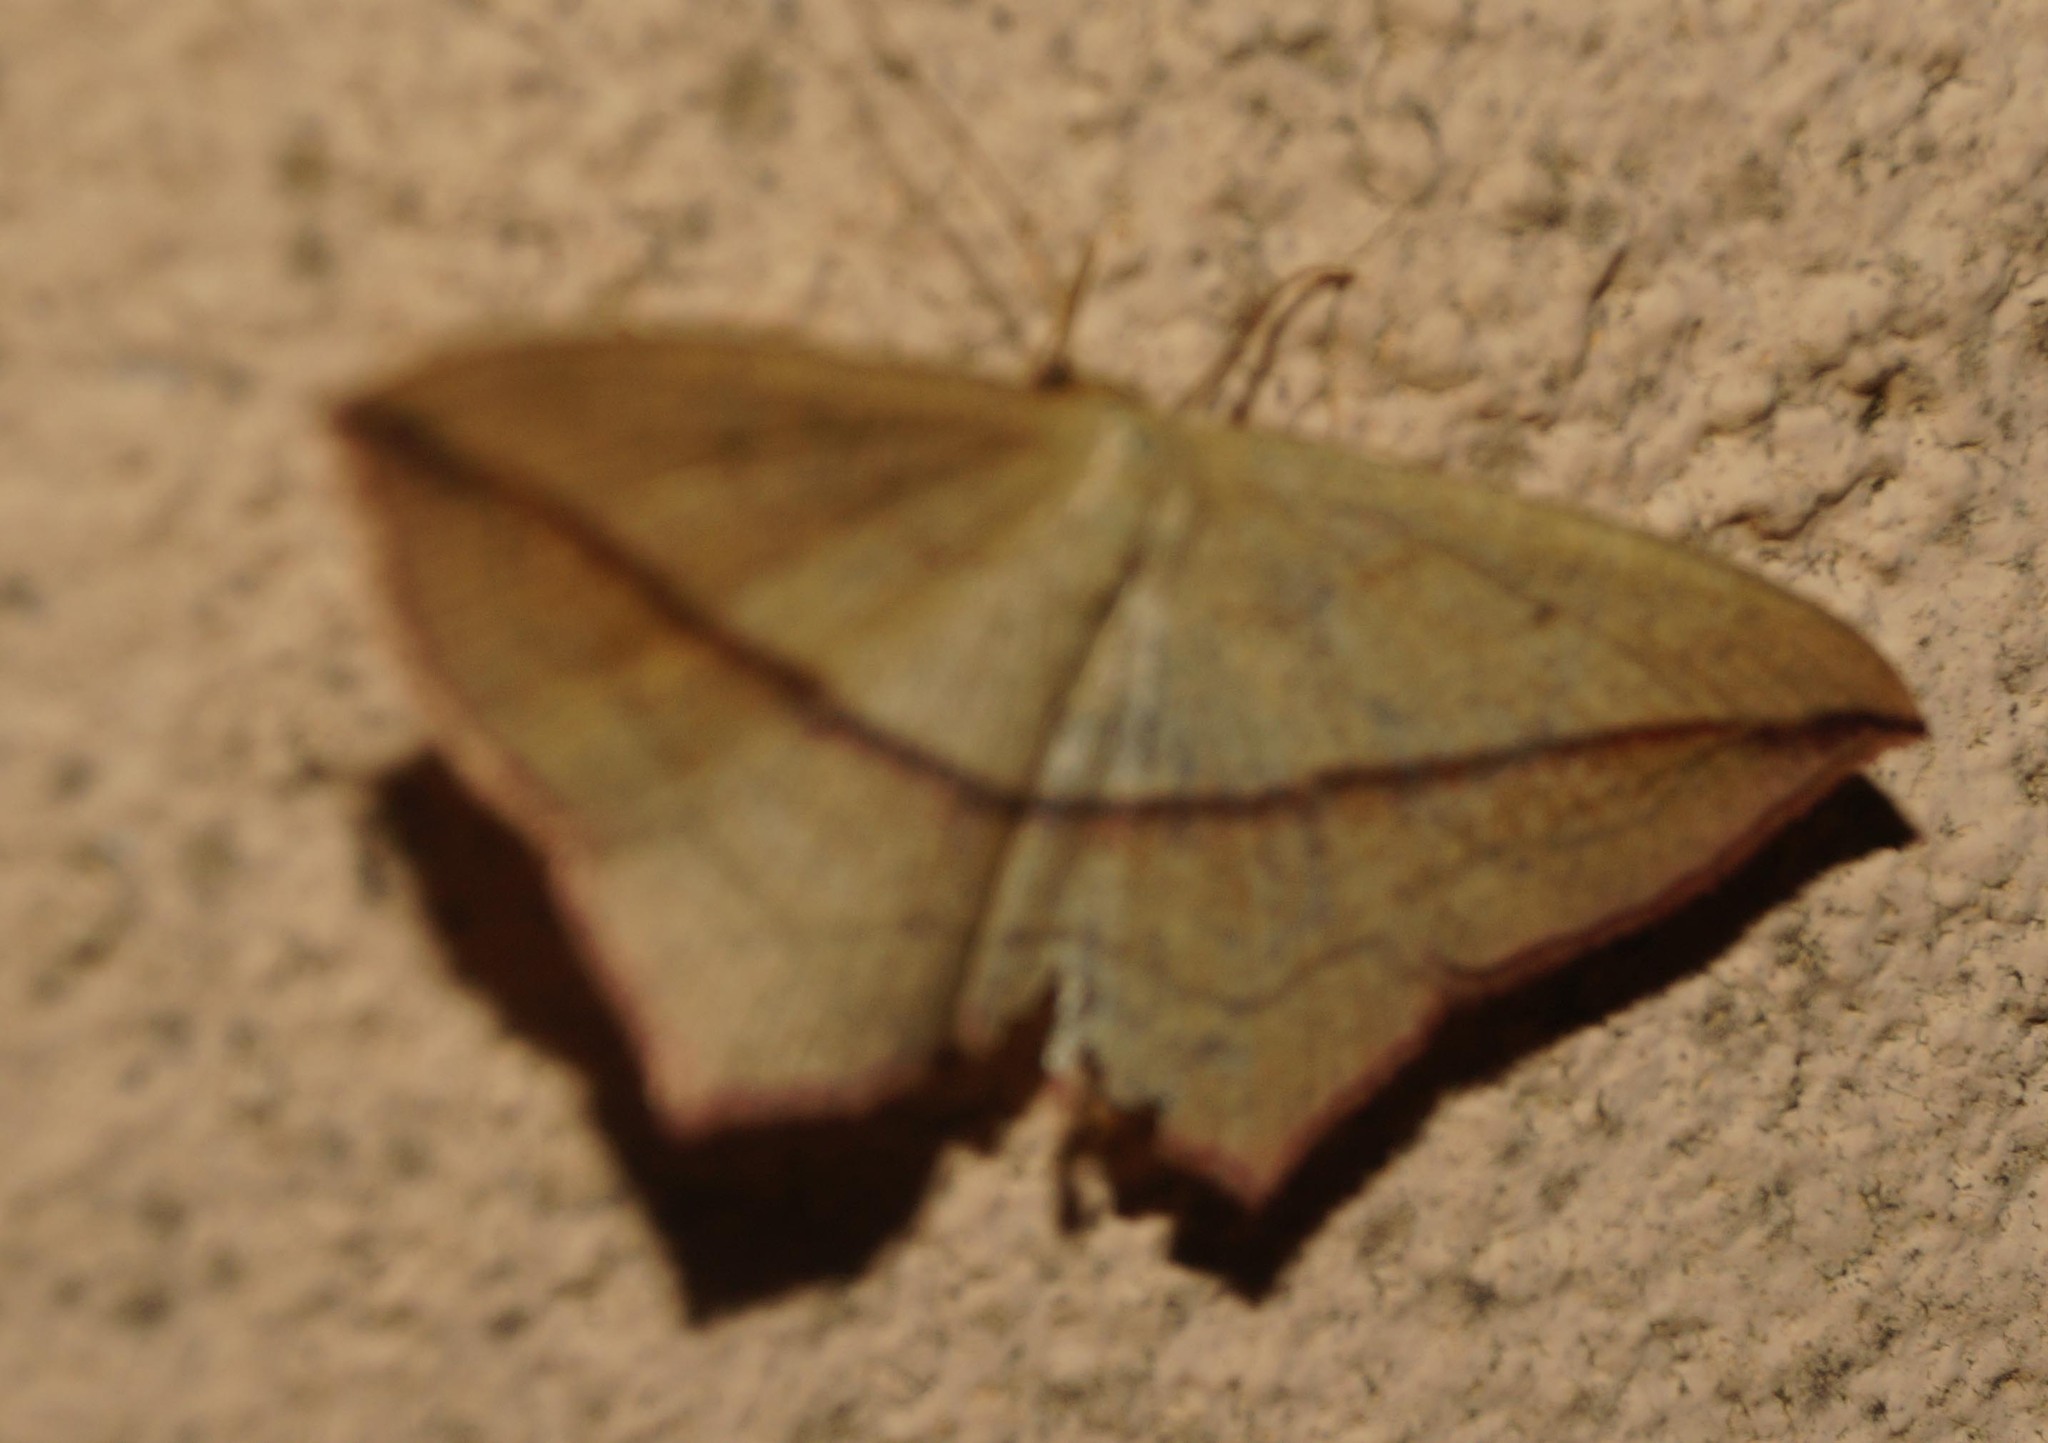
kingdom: Animalia
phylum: Arthropoda
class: Insecta
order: Lepidoptera
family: Geometridae
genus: Timandra
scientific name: Timandra comae
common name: Blood-vein
